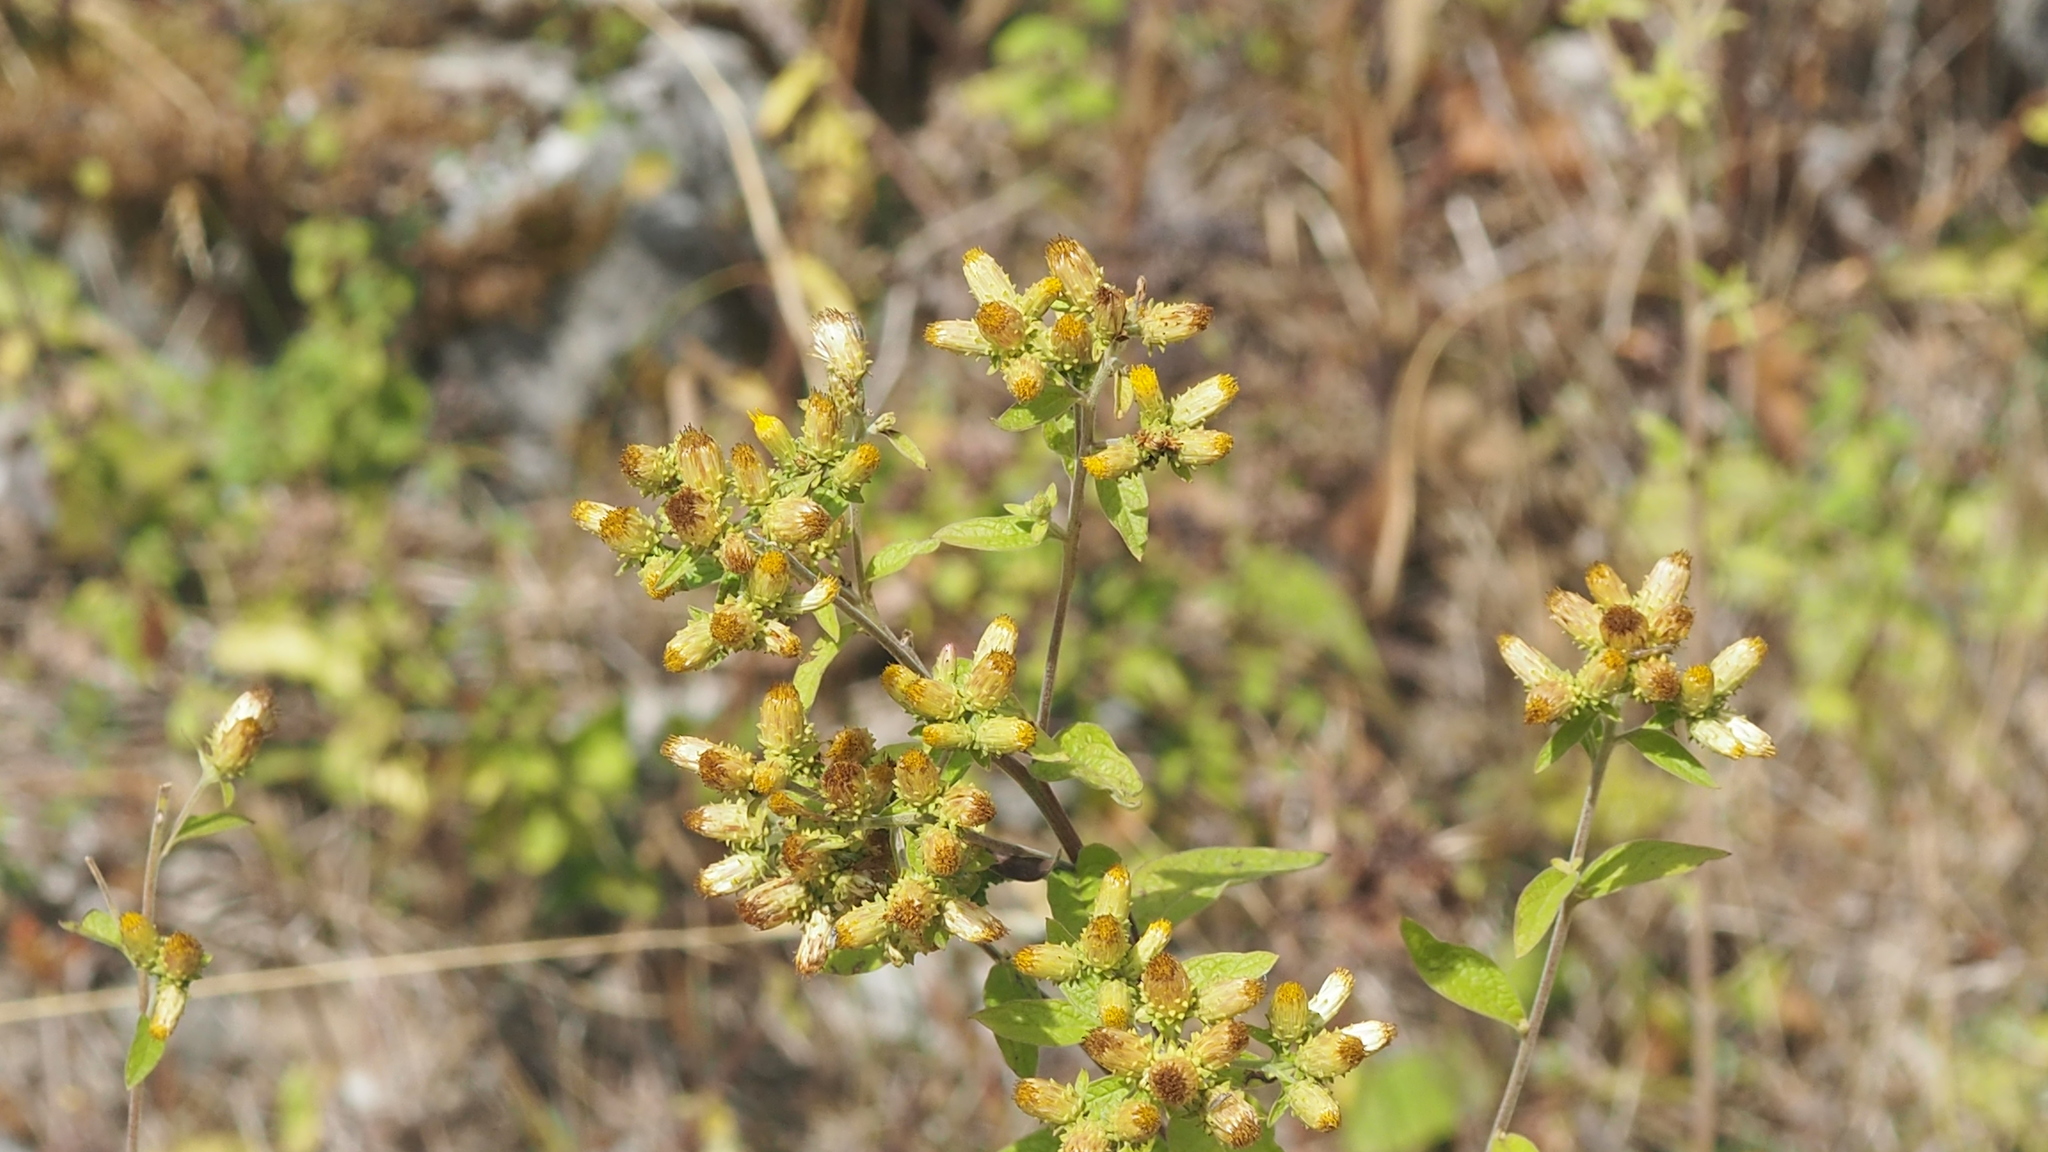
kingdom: Plantae
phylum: Tracheophyta
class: Magnoliopsida
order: Asterales
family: Asteraceae
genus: Pentanema
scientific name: Pentanema squarrosum
